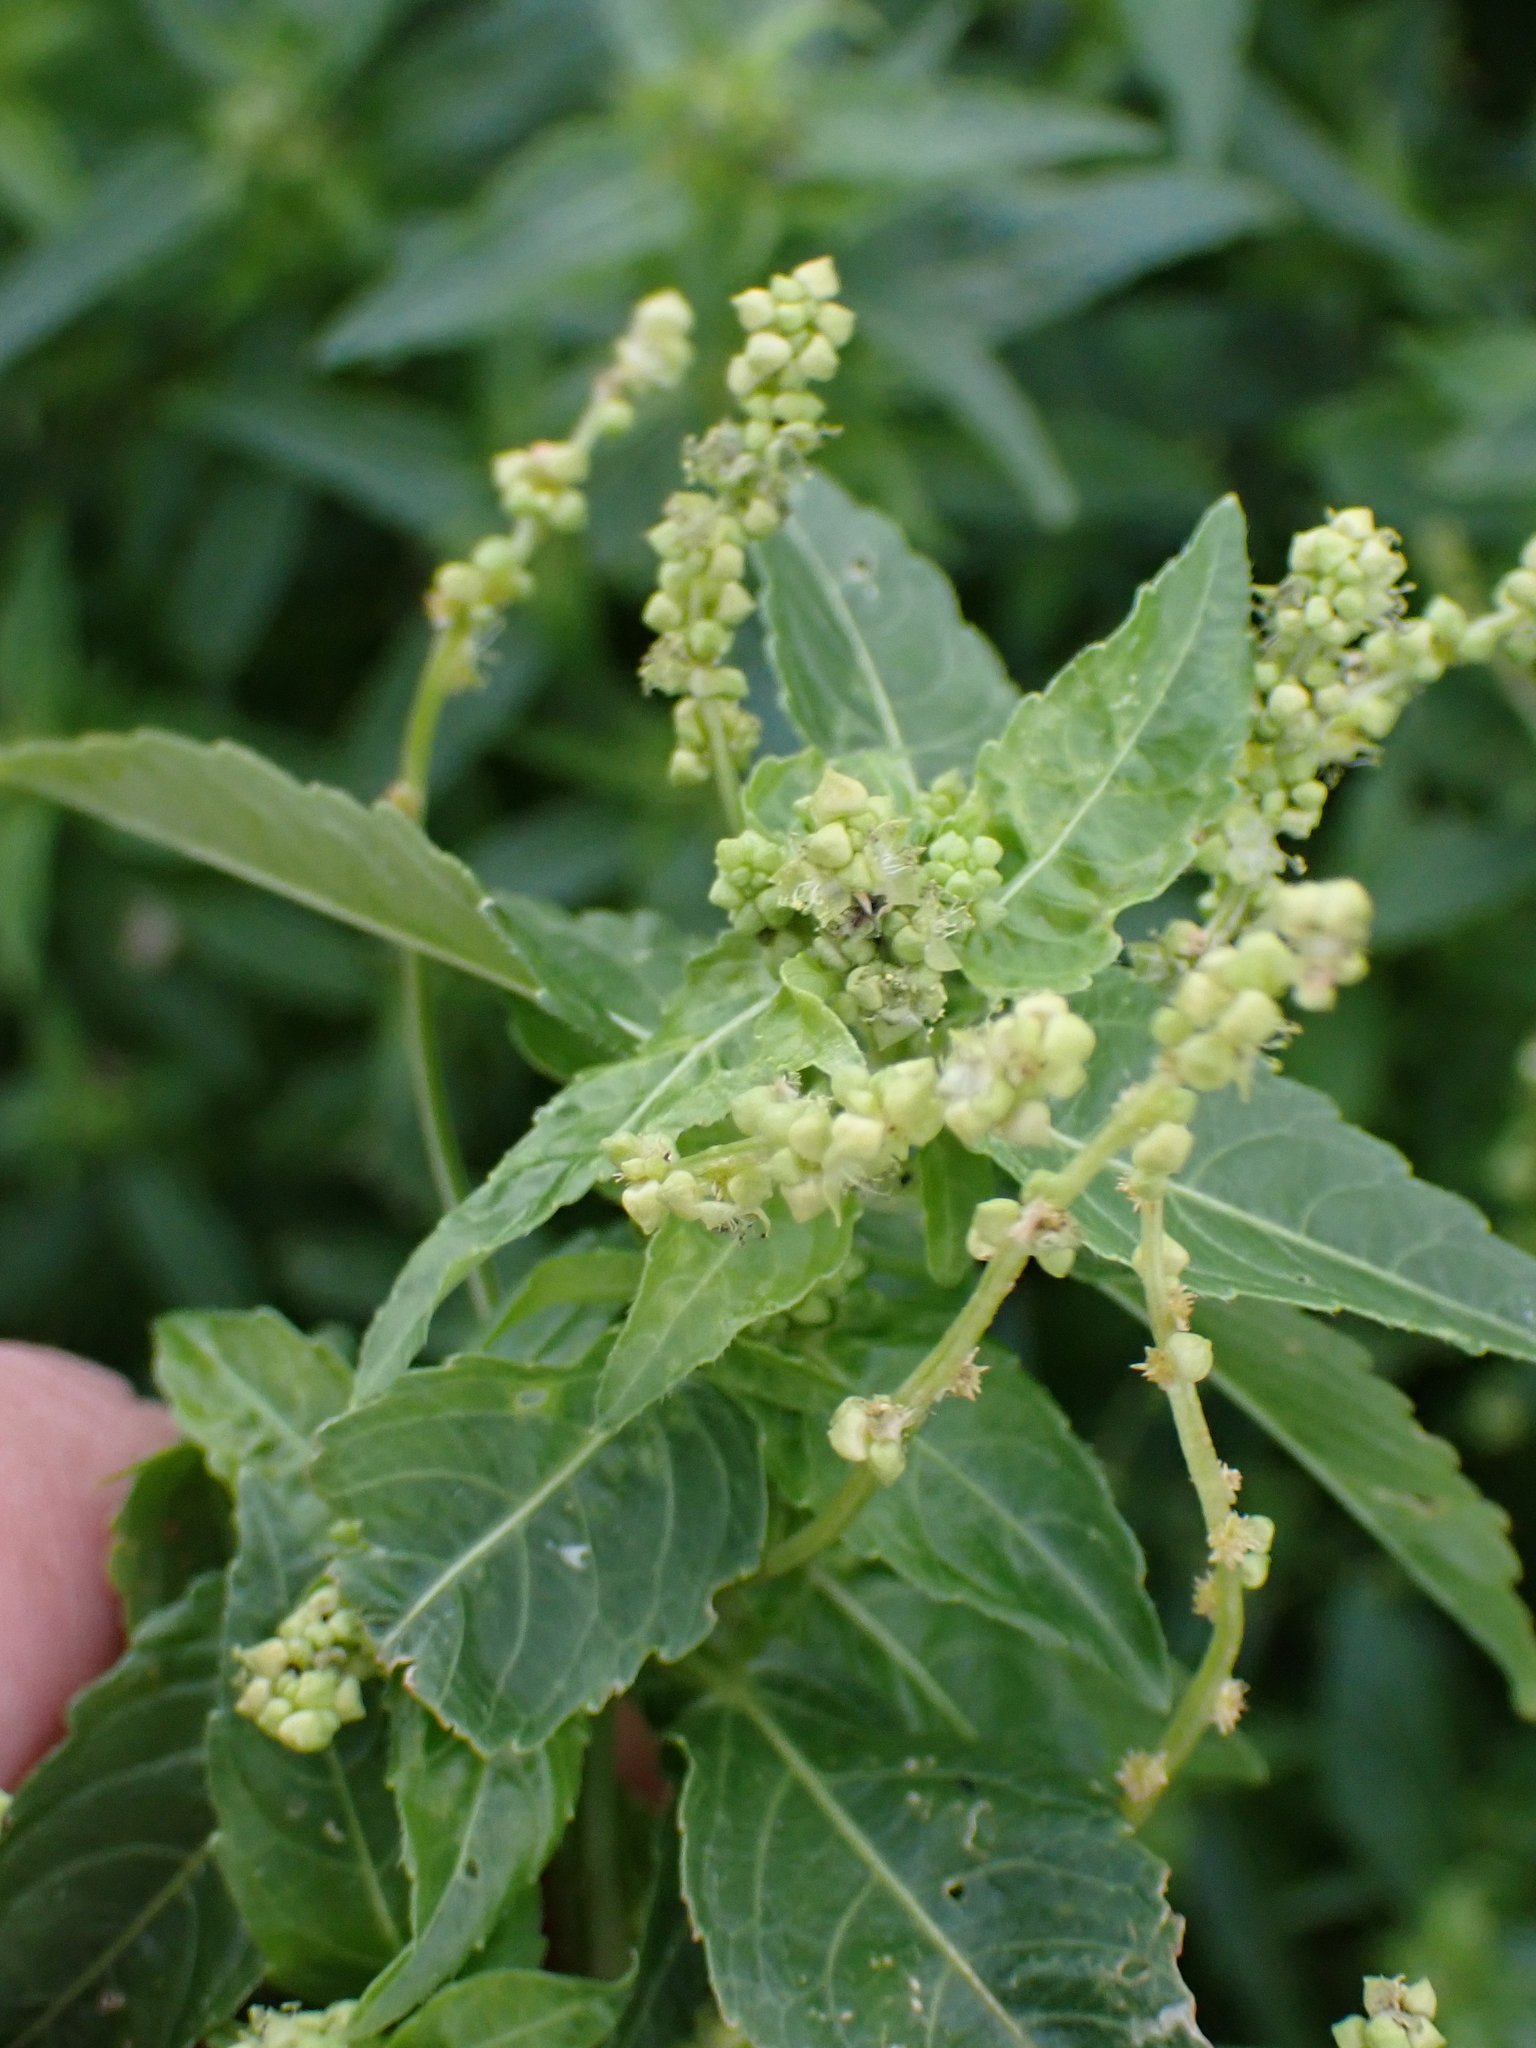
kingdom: Plantae
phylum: Tracheophyta
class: Magnoliopsida
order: Malpighiales
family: Euphorbiaceae
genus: Mercurialis
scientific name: Mercurialis annua
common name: Annual mercury
